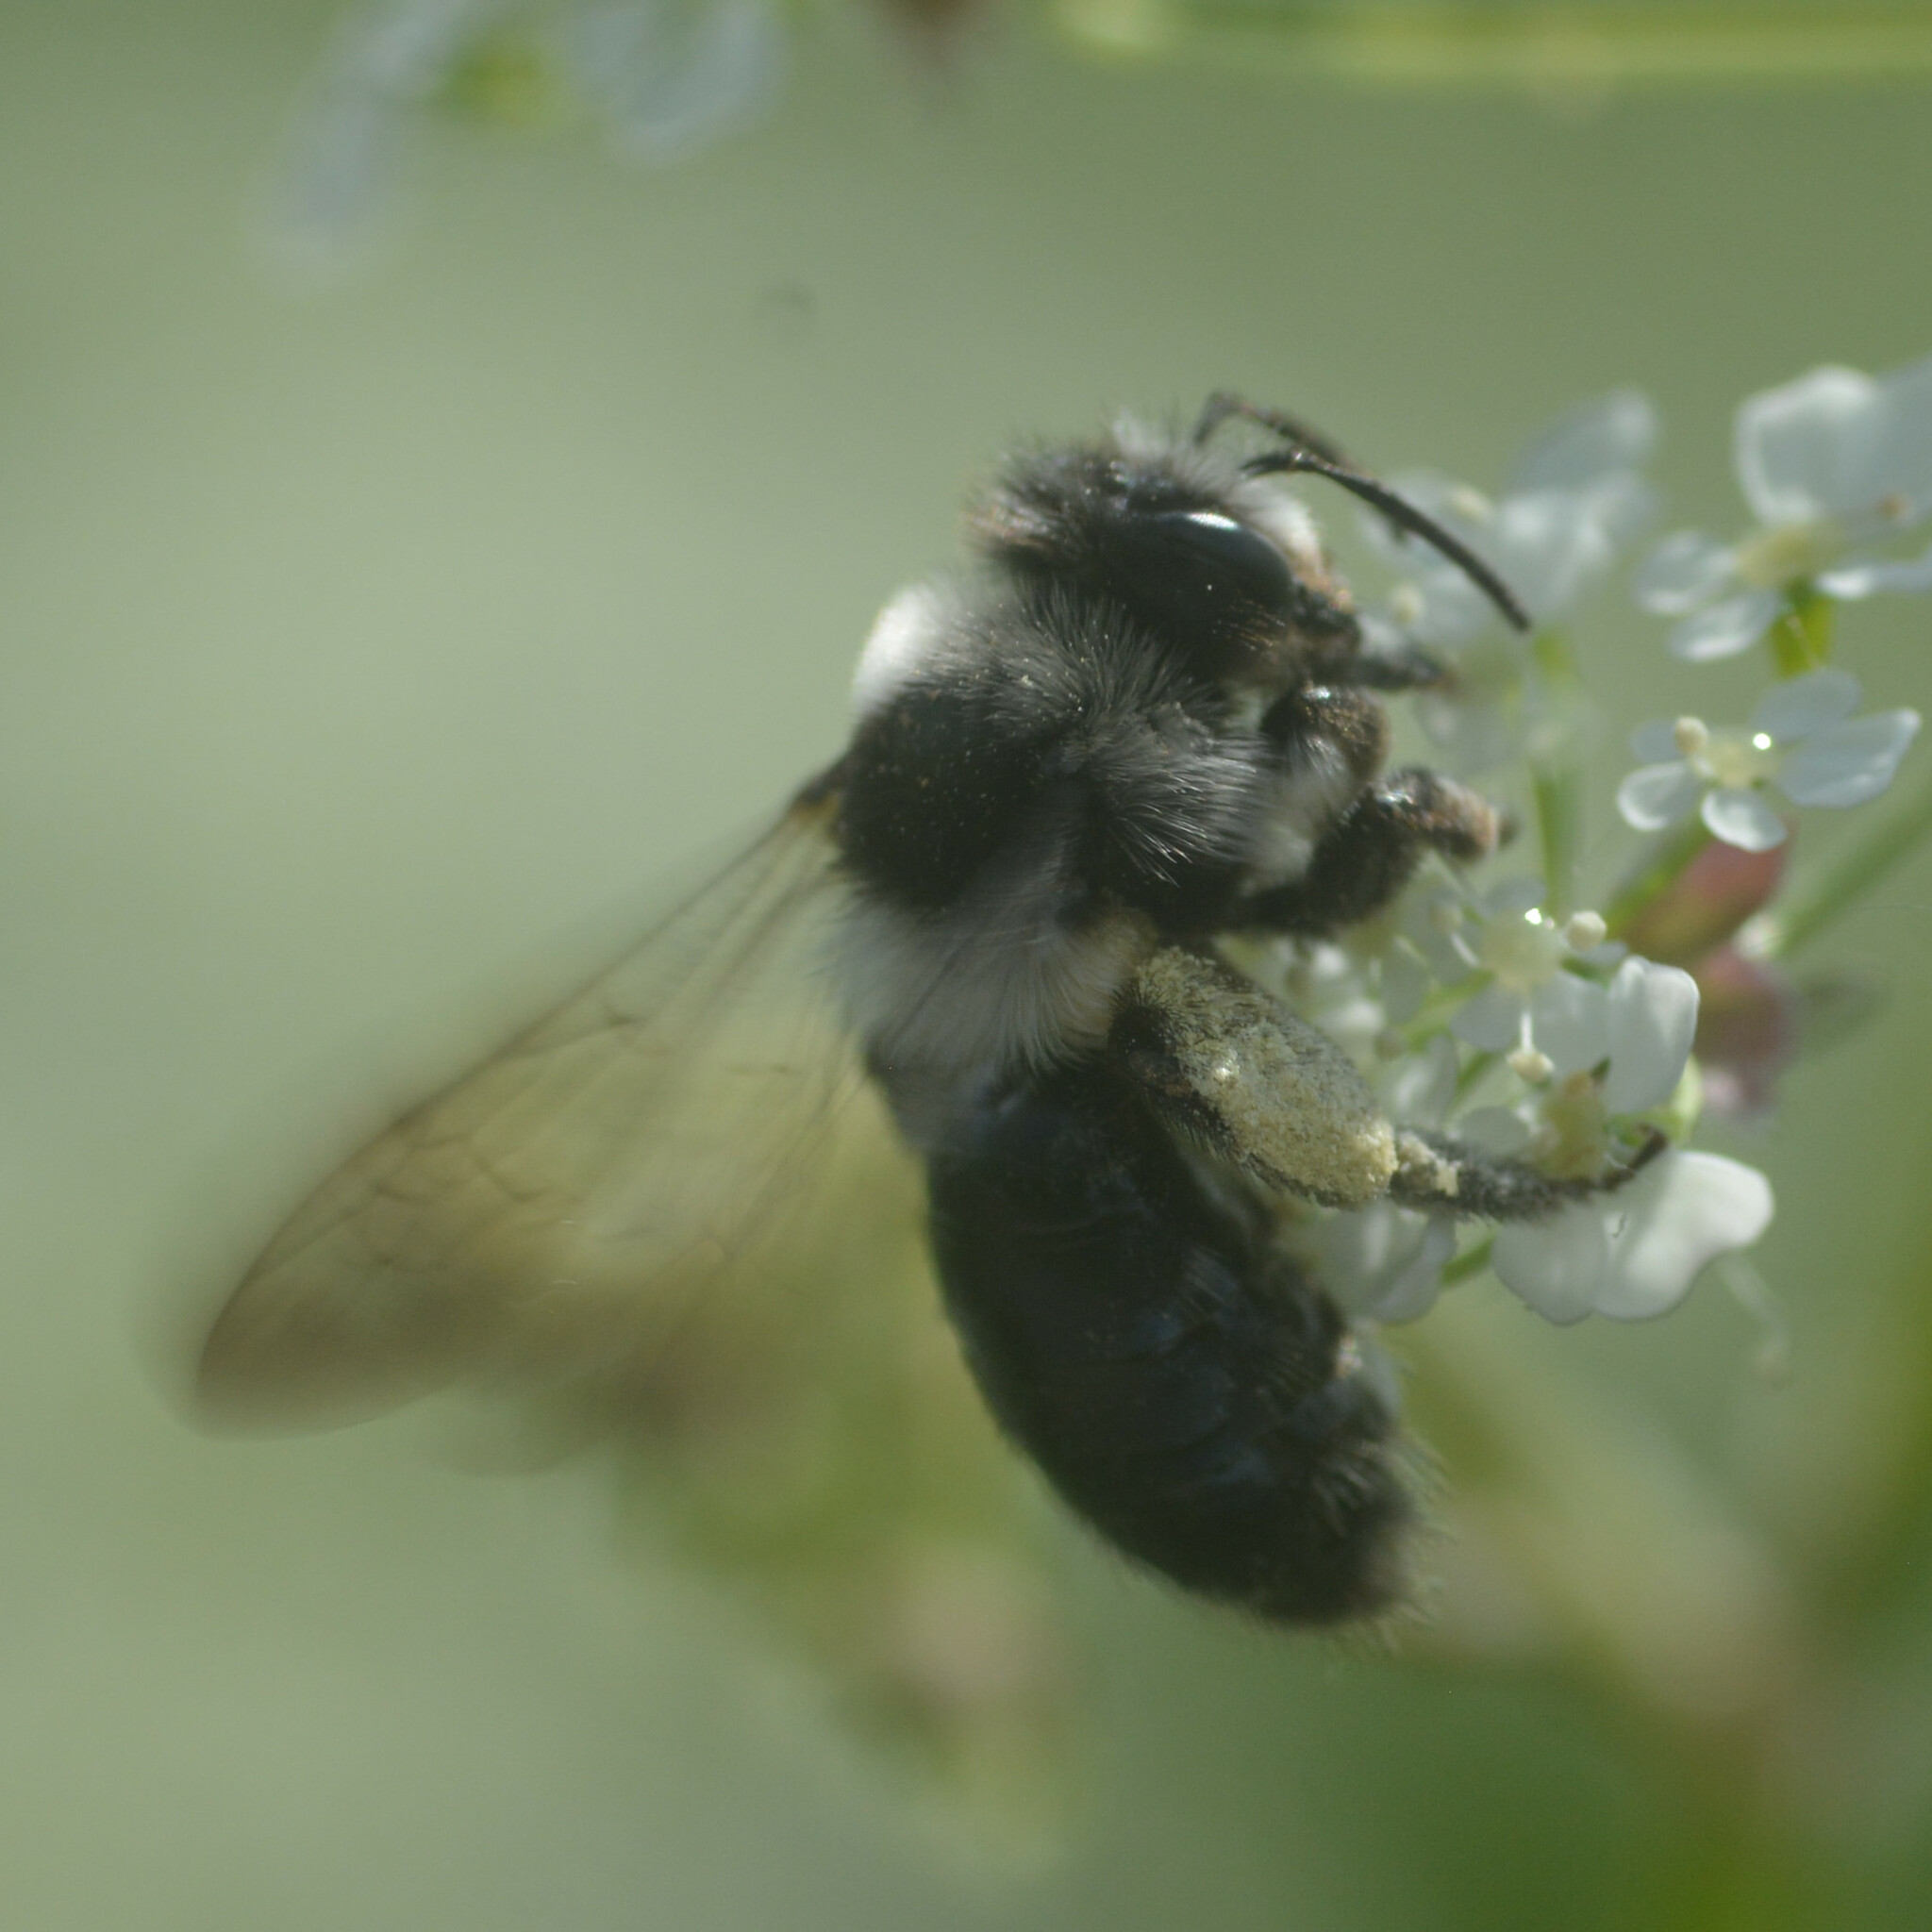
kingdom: Animalia
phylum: Arthropoda
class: Insecta
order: Hymenoptera
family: Andrenidae
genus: Andrena
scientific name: Andrena cineraria
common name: Ashy mining bee
